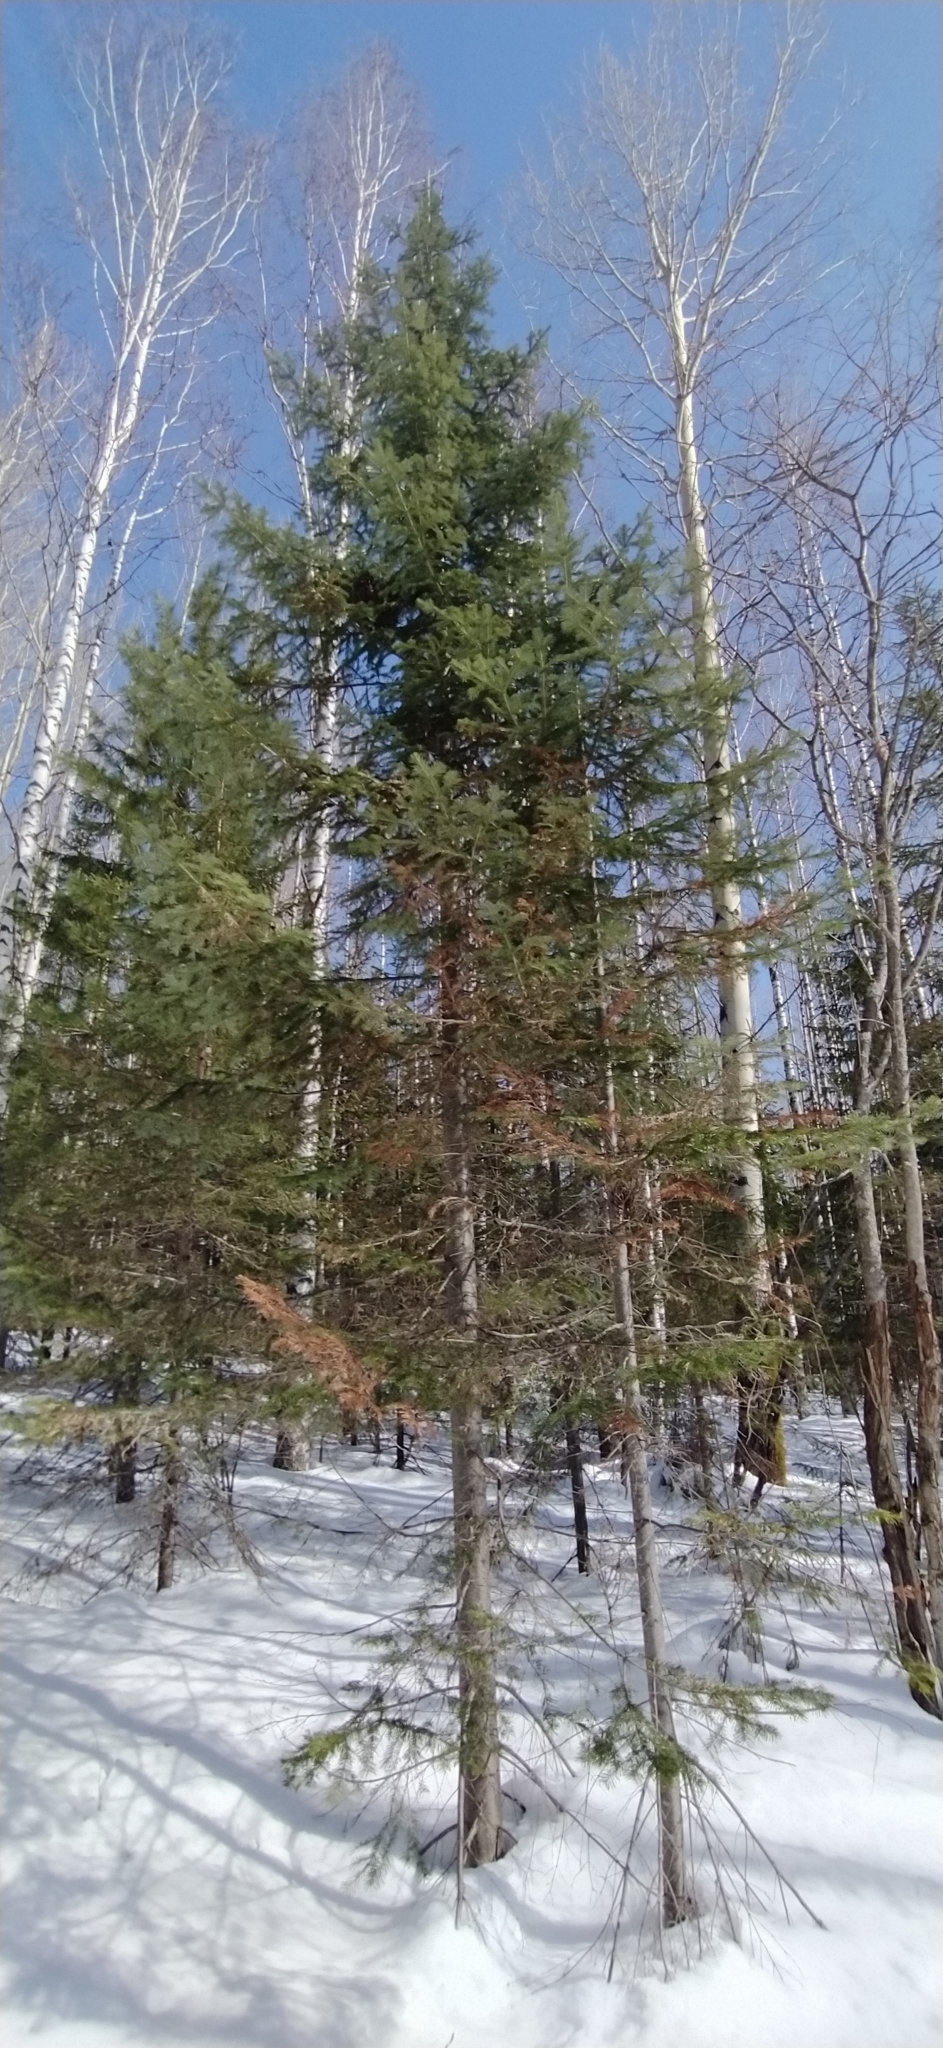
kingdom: Plantae
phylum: Tracheophyta
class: Pinopsida
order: Pinales
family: Pinaceae
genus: Abies
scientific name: Abies sibirica
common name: Siberian fir
